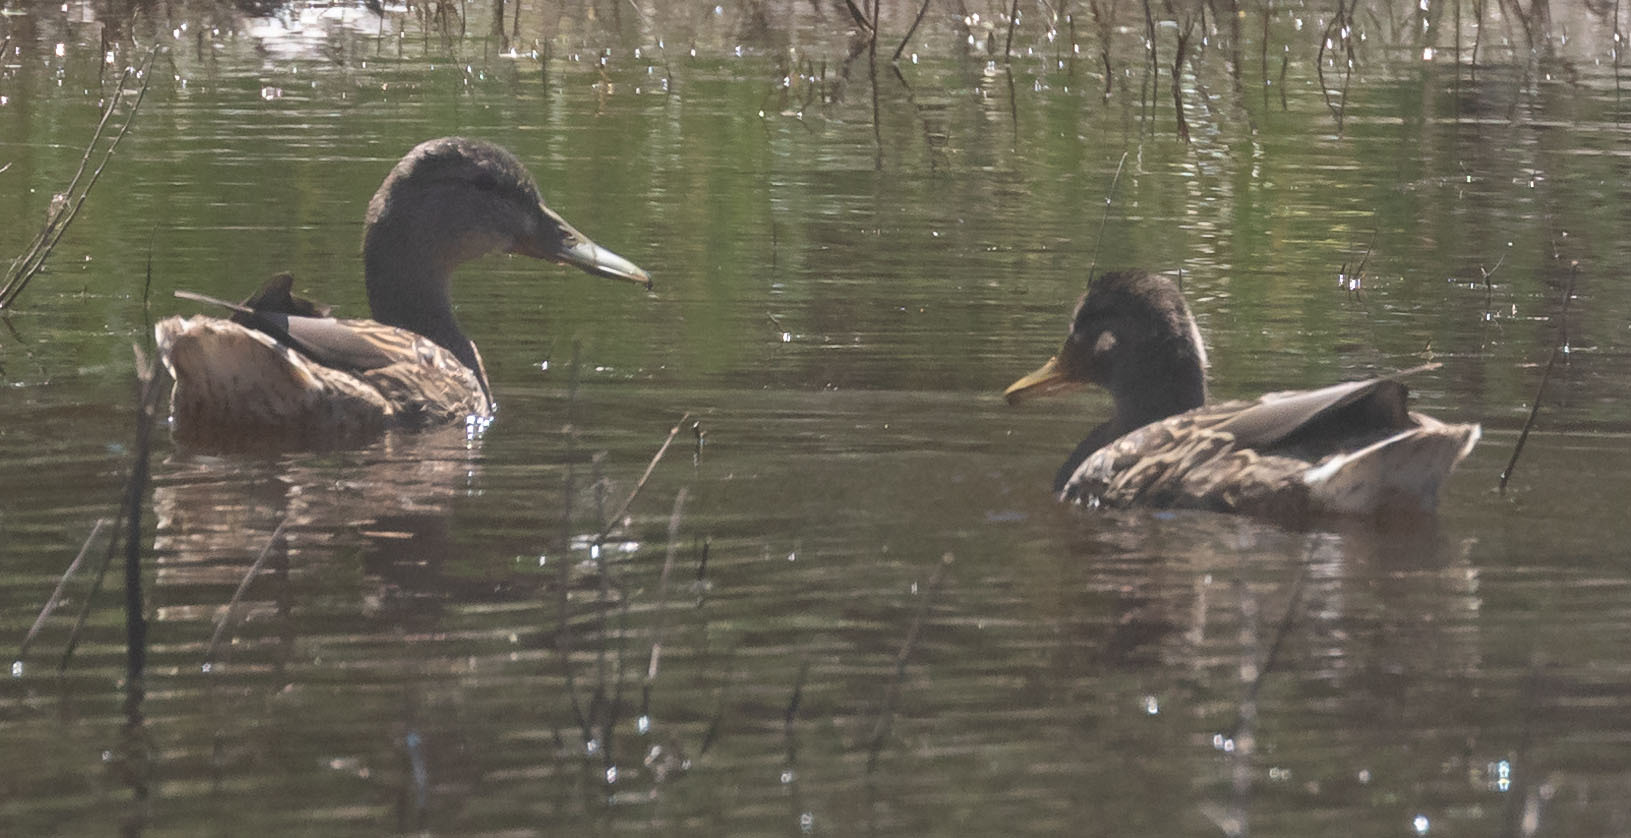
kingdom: Animalia
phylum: Chordata
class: Aves
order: Anseriformes
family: Anatidae
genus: Anas
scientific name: Anas platyrhynchos
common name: Mallard
